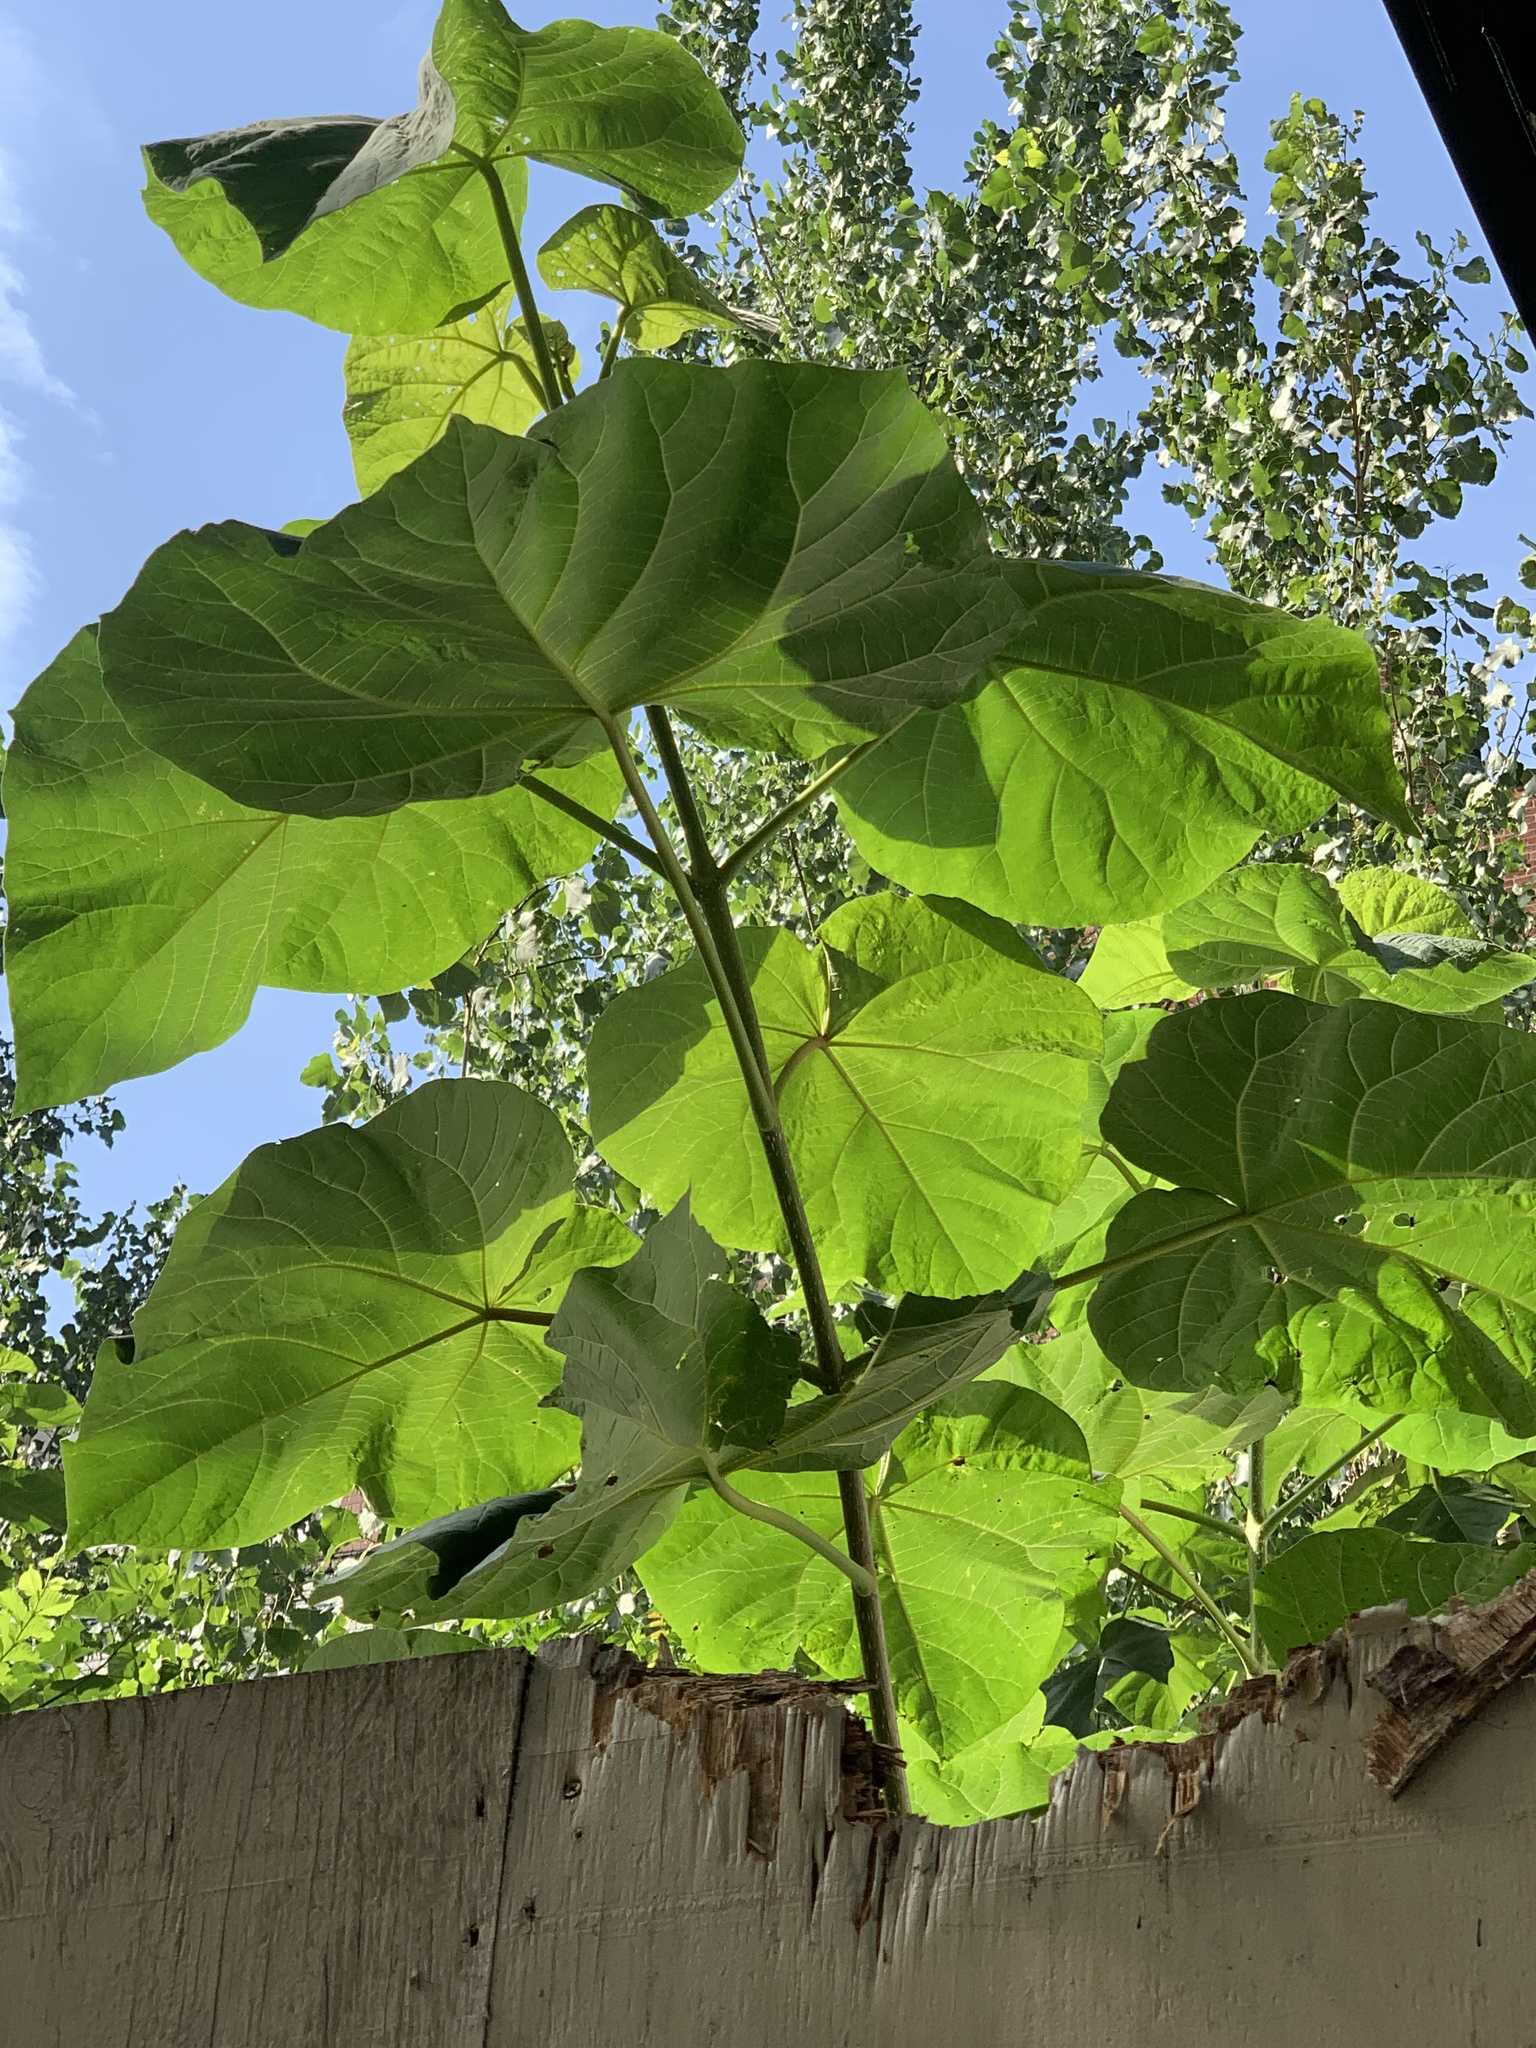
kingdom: Plantae
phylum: Tracheophyta
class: Magnoliopsida
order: Lamiales
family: Paulowniaceae
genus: Paulownia
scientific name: Paulownia tomentosa
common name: Foxglove-tree
